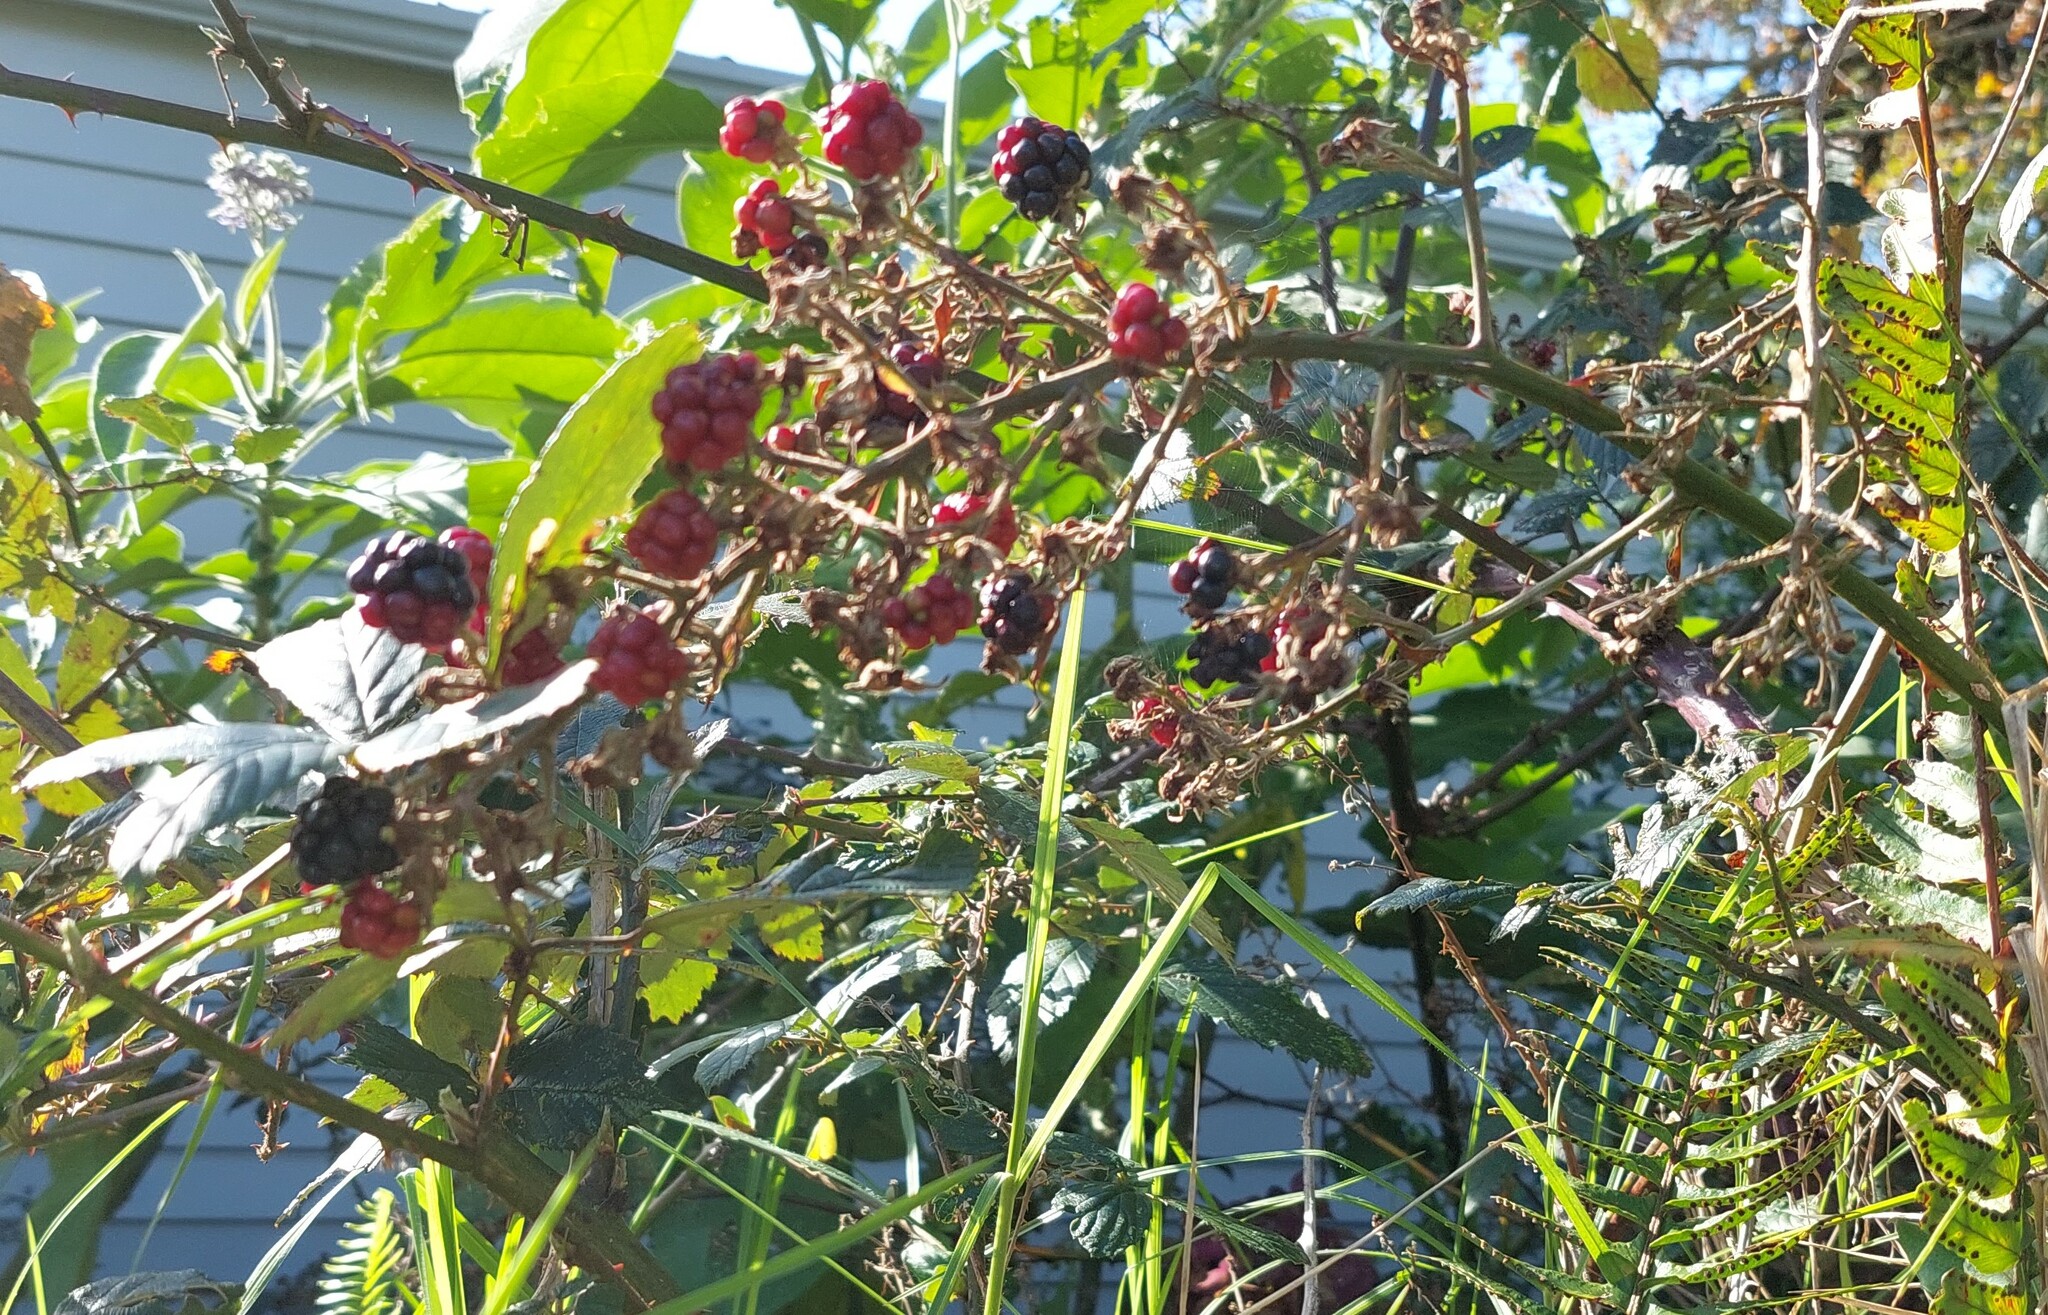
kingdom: Plantae
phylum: Tracheophyta
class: Magnoliopsida
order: Rosales
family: Rosaceae
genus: Rubus
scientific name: Rubus fruticosus
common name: Blackberry, bramble
